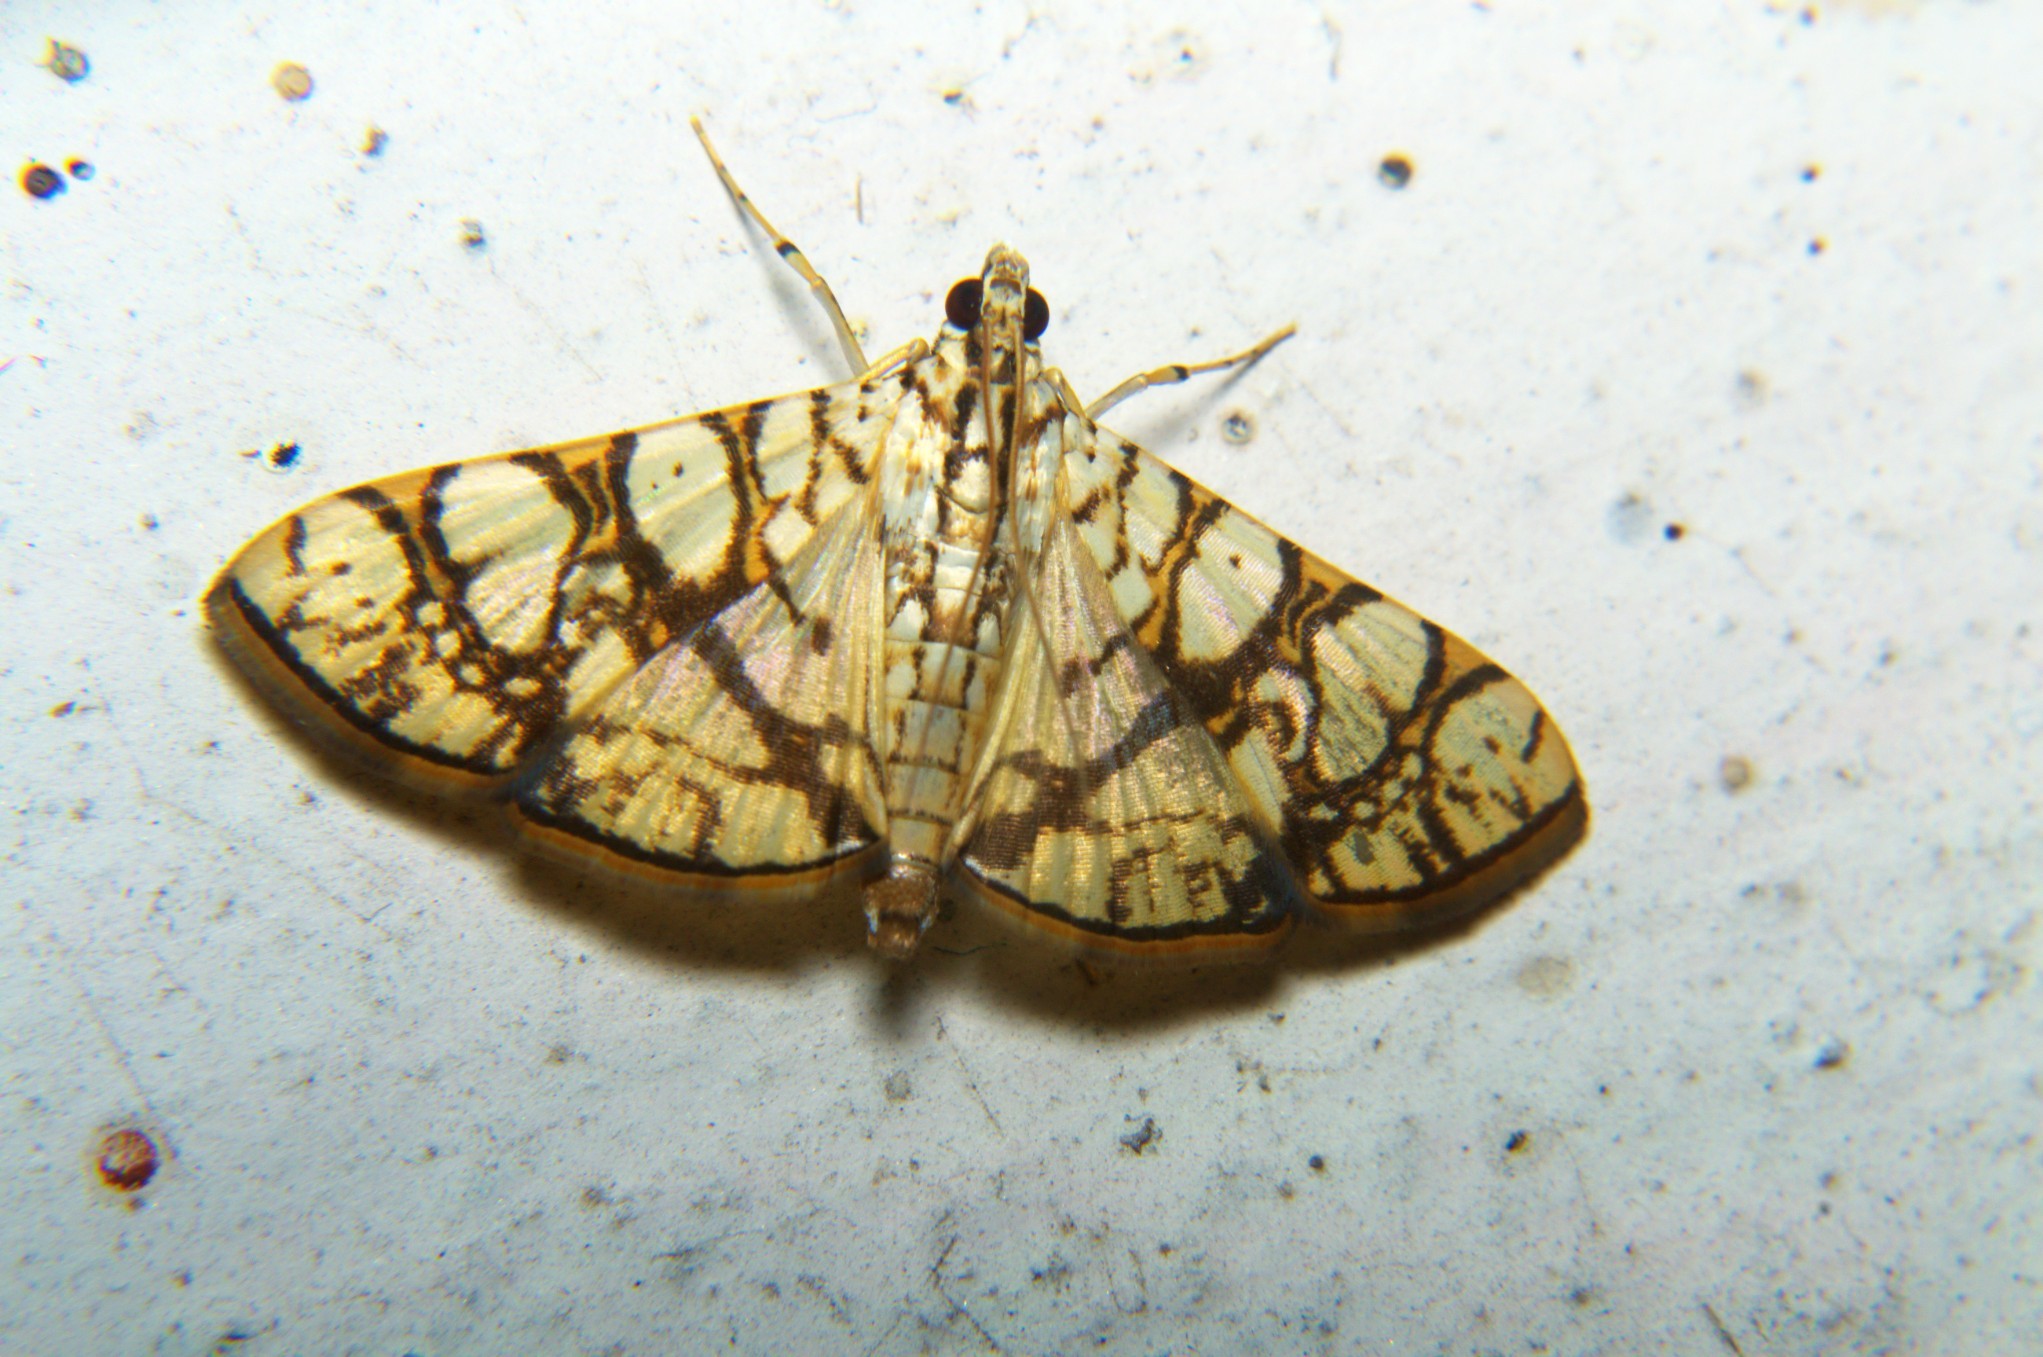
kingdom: Animalia
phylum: Arthropoda
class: Insecta
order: Lepidoptera
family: Crambidae
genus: Glyphodes
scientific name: Glyphodes caesalis
